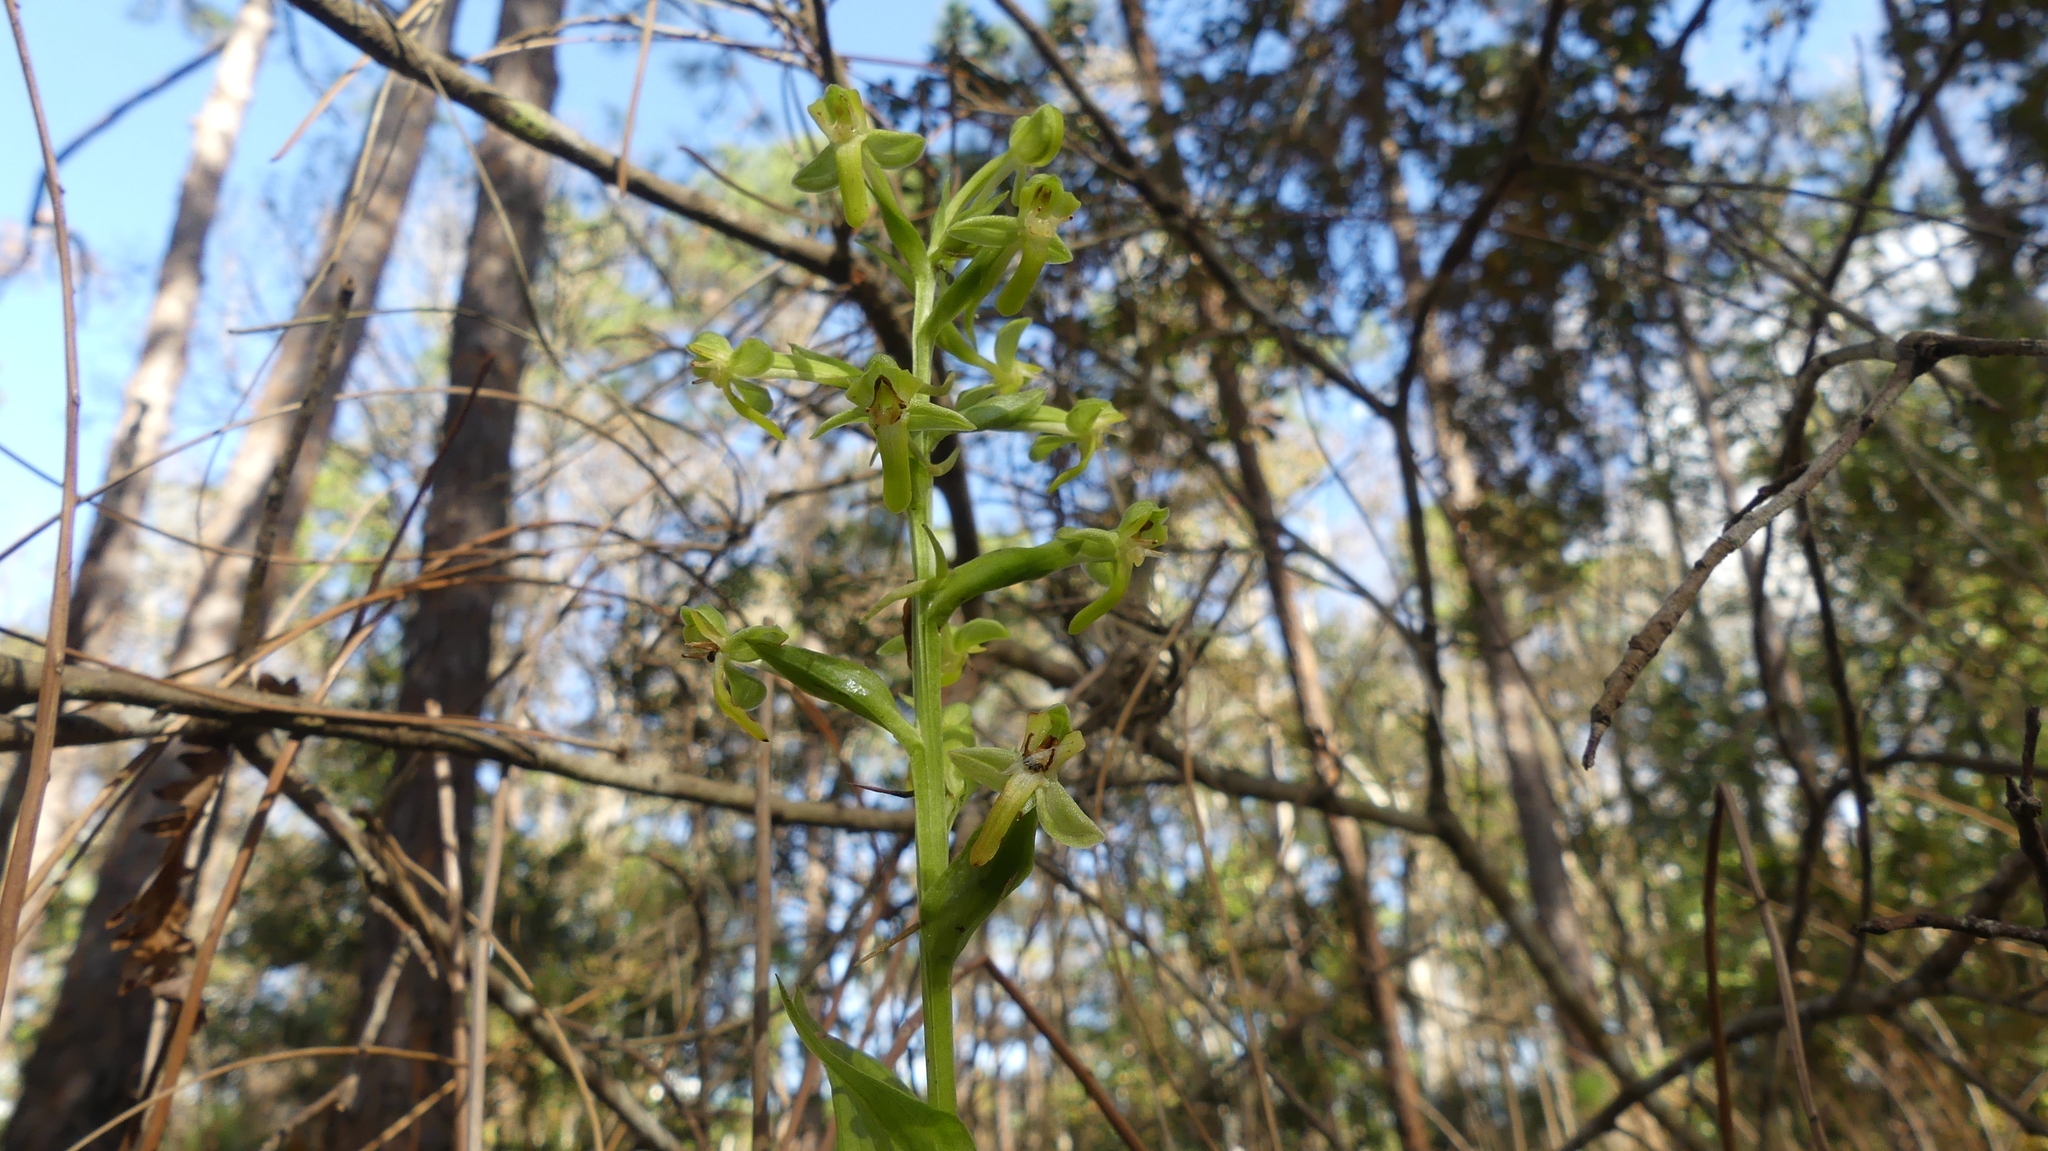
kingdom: Plantae
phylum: Tracheophyta
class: Liliopsida
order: Asparagales
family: Orchidaceae
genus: Habenaria
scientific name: Habenaria floribunda
